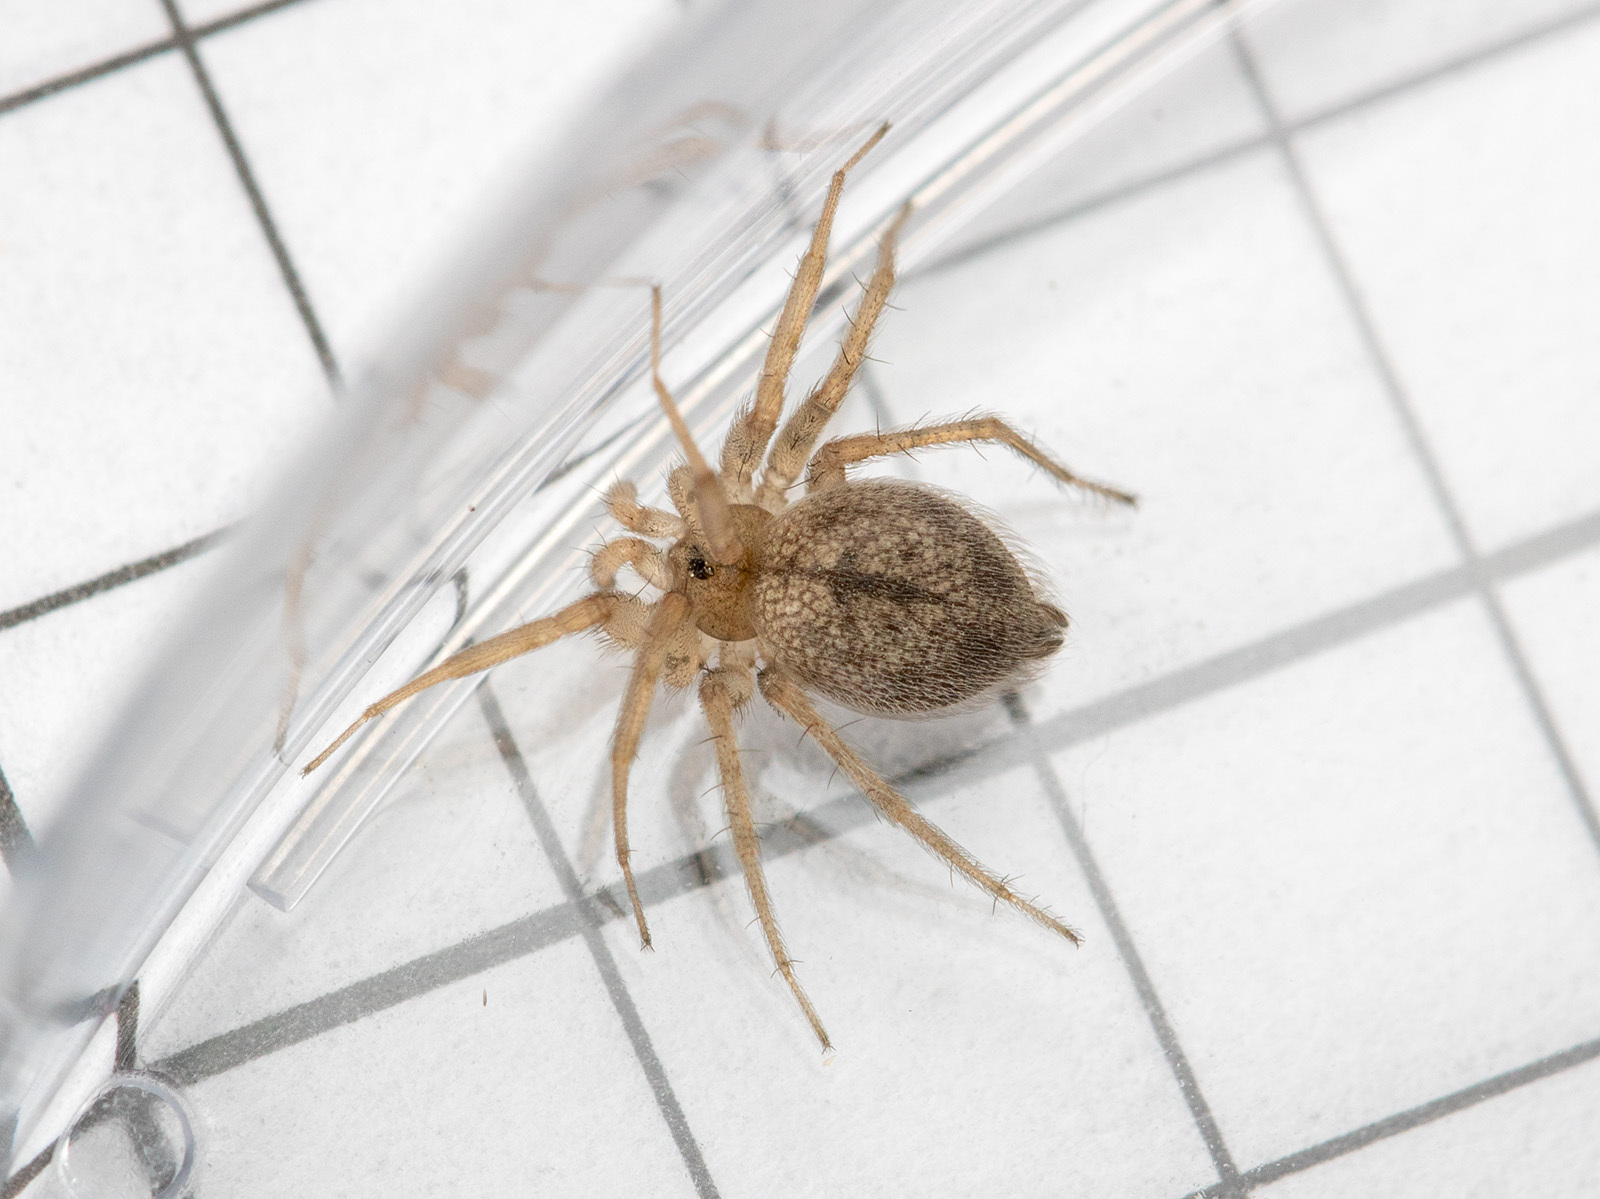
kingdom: Animalia
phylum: Arthropoda
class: Arachnida
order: Araneae
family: Oecobiidae
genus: Oecobius
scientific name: Oecobius nadiae
